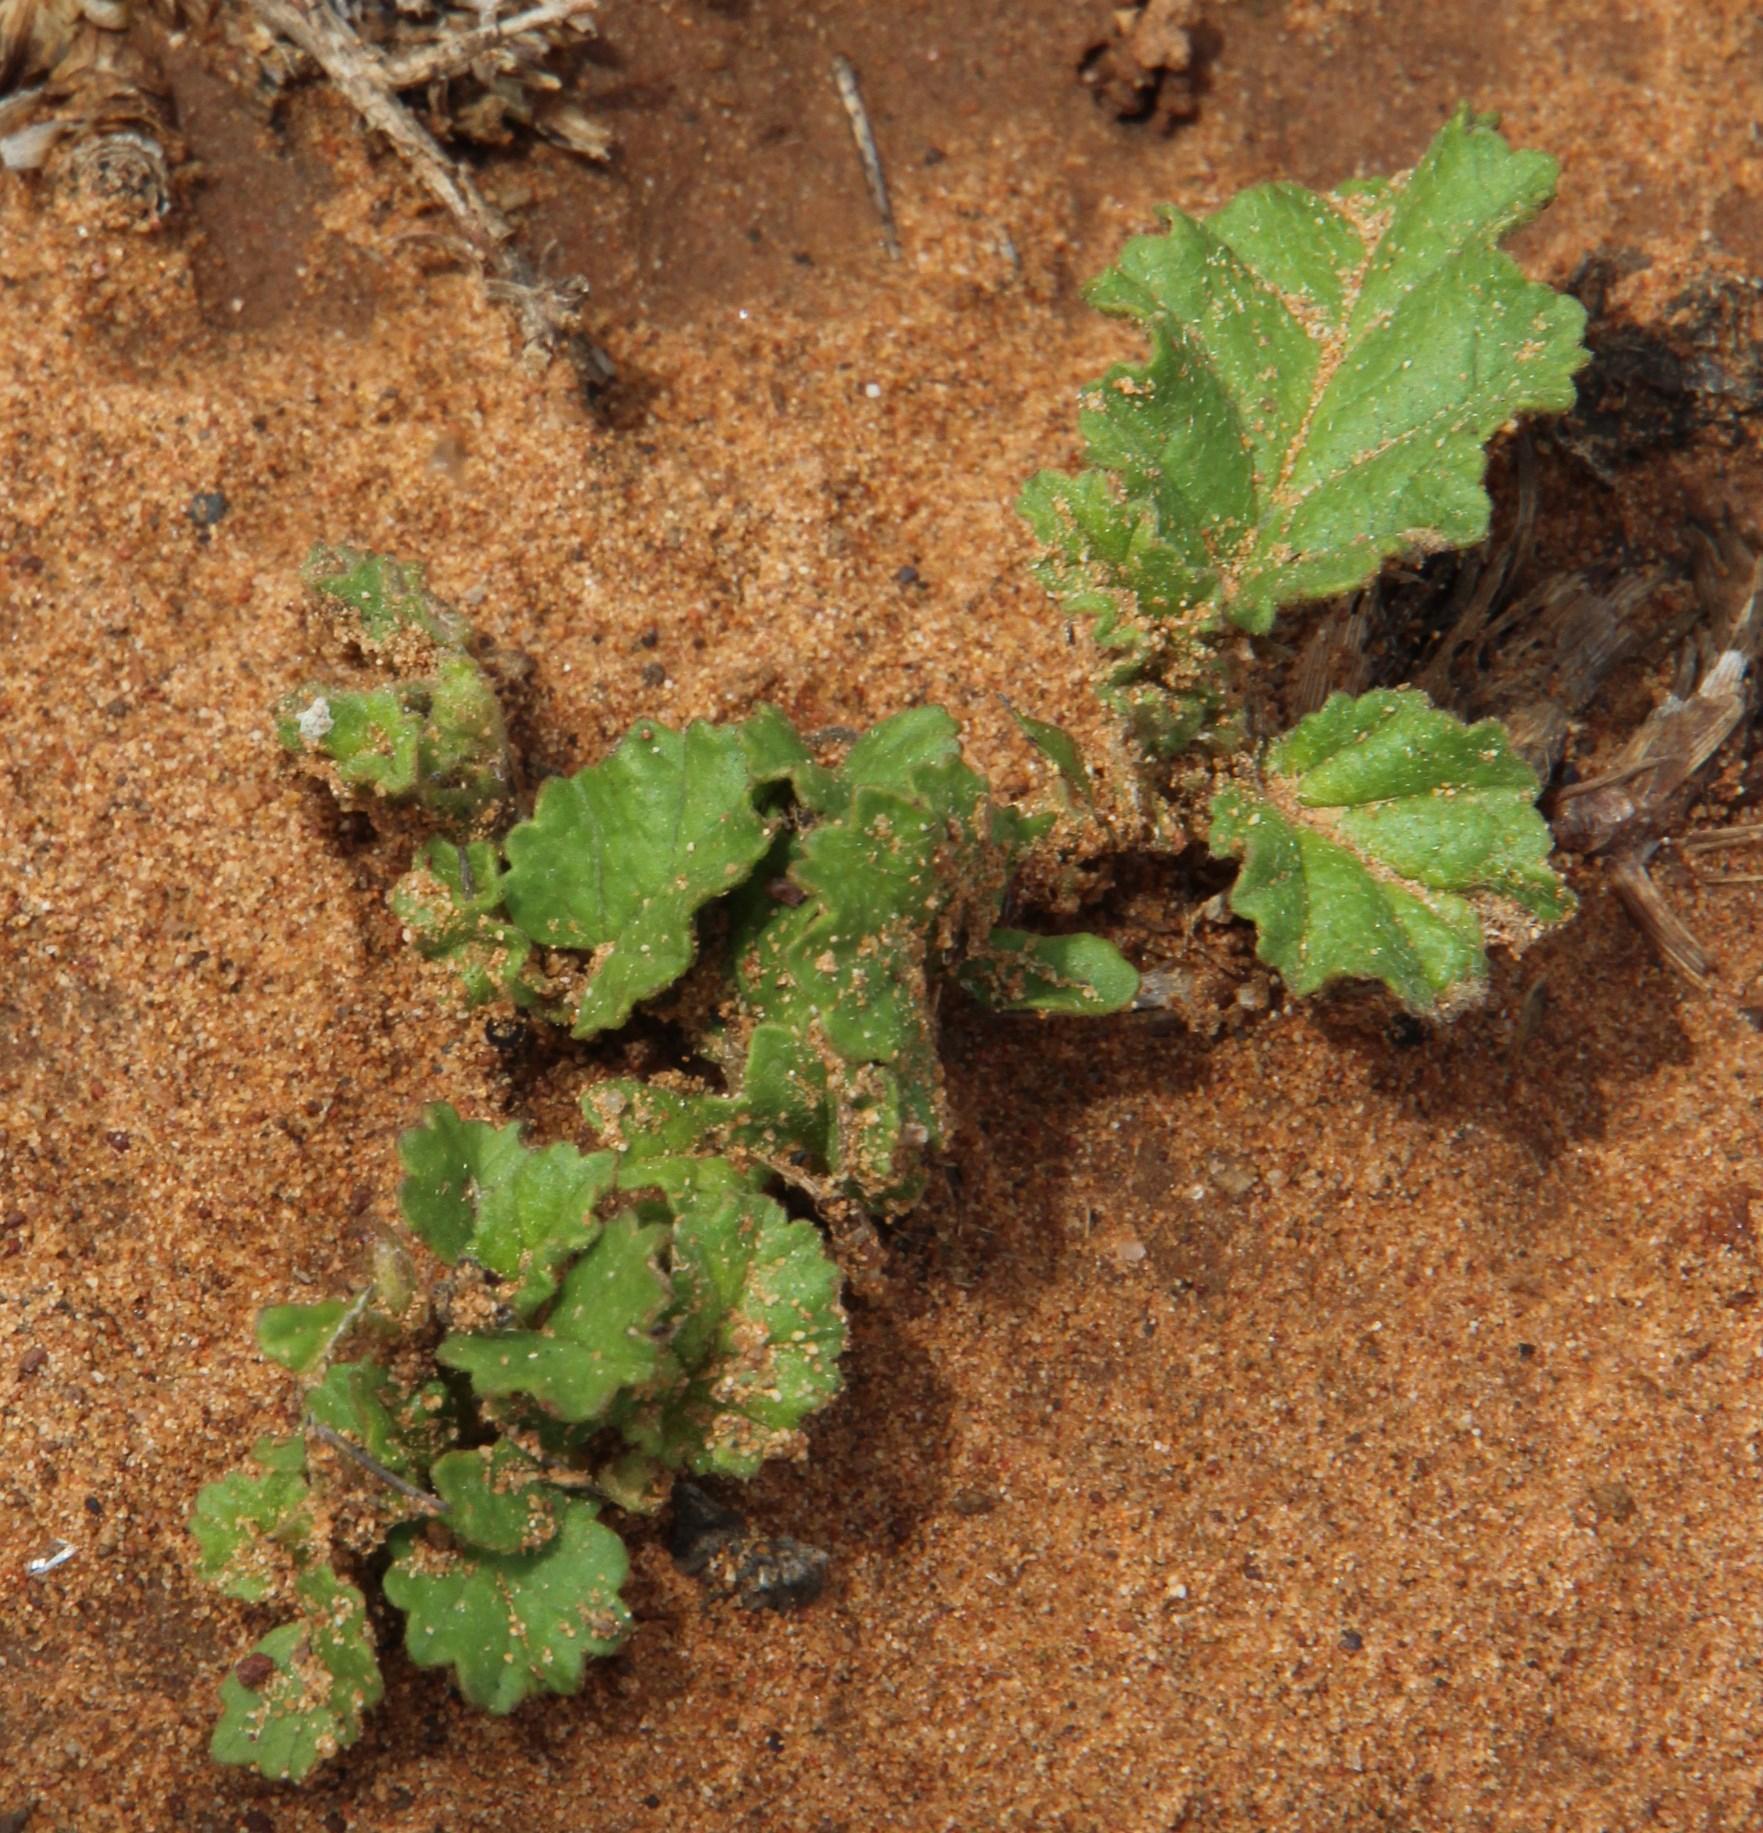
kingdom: Plantae
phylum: Tracheophyta
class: Magnoliopsida
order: Malvales
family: Malvaceae
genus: Hermannia
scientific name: Hermannia althaeoides
